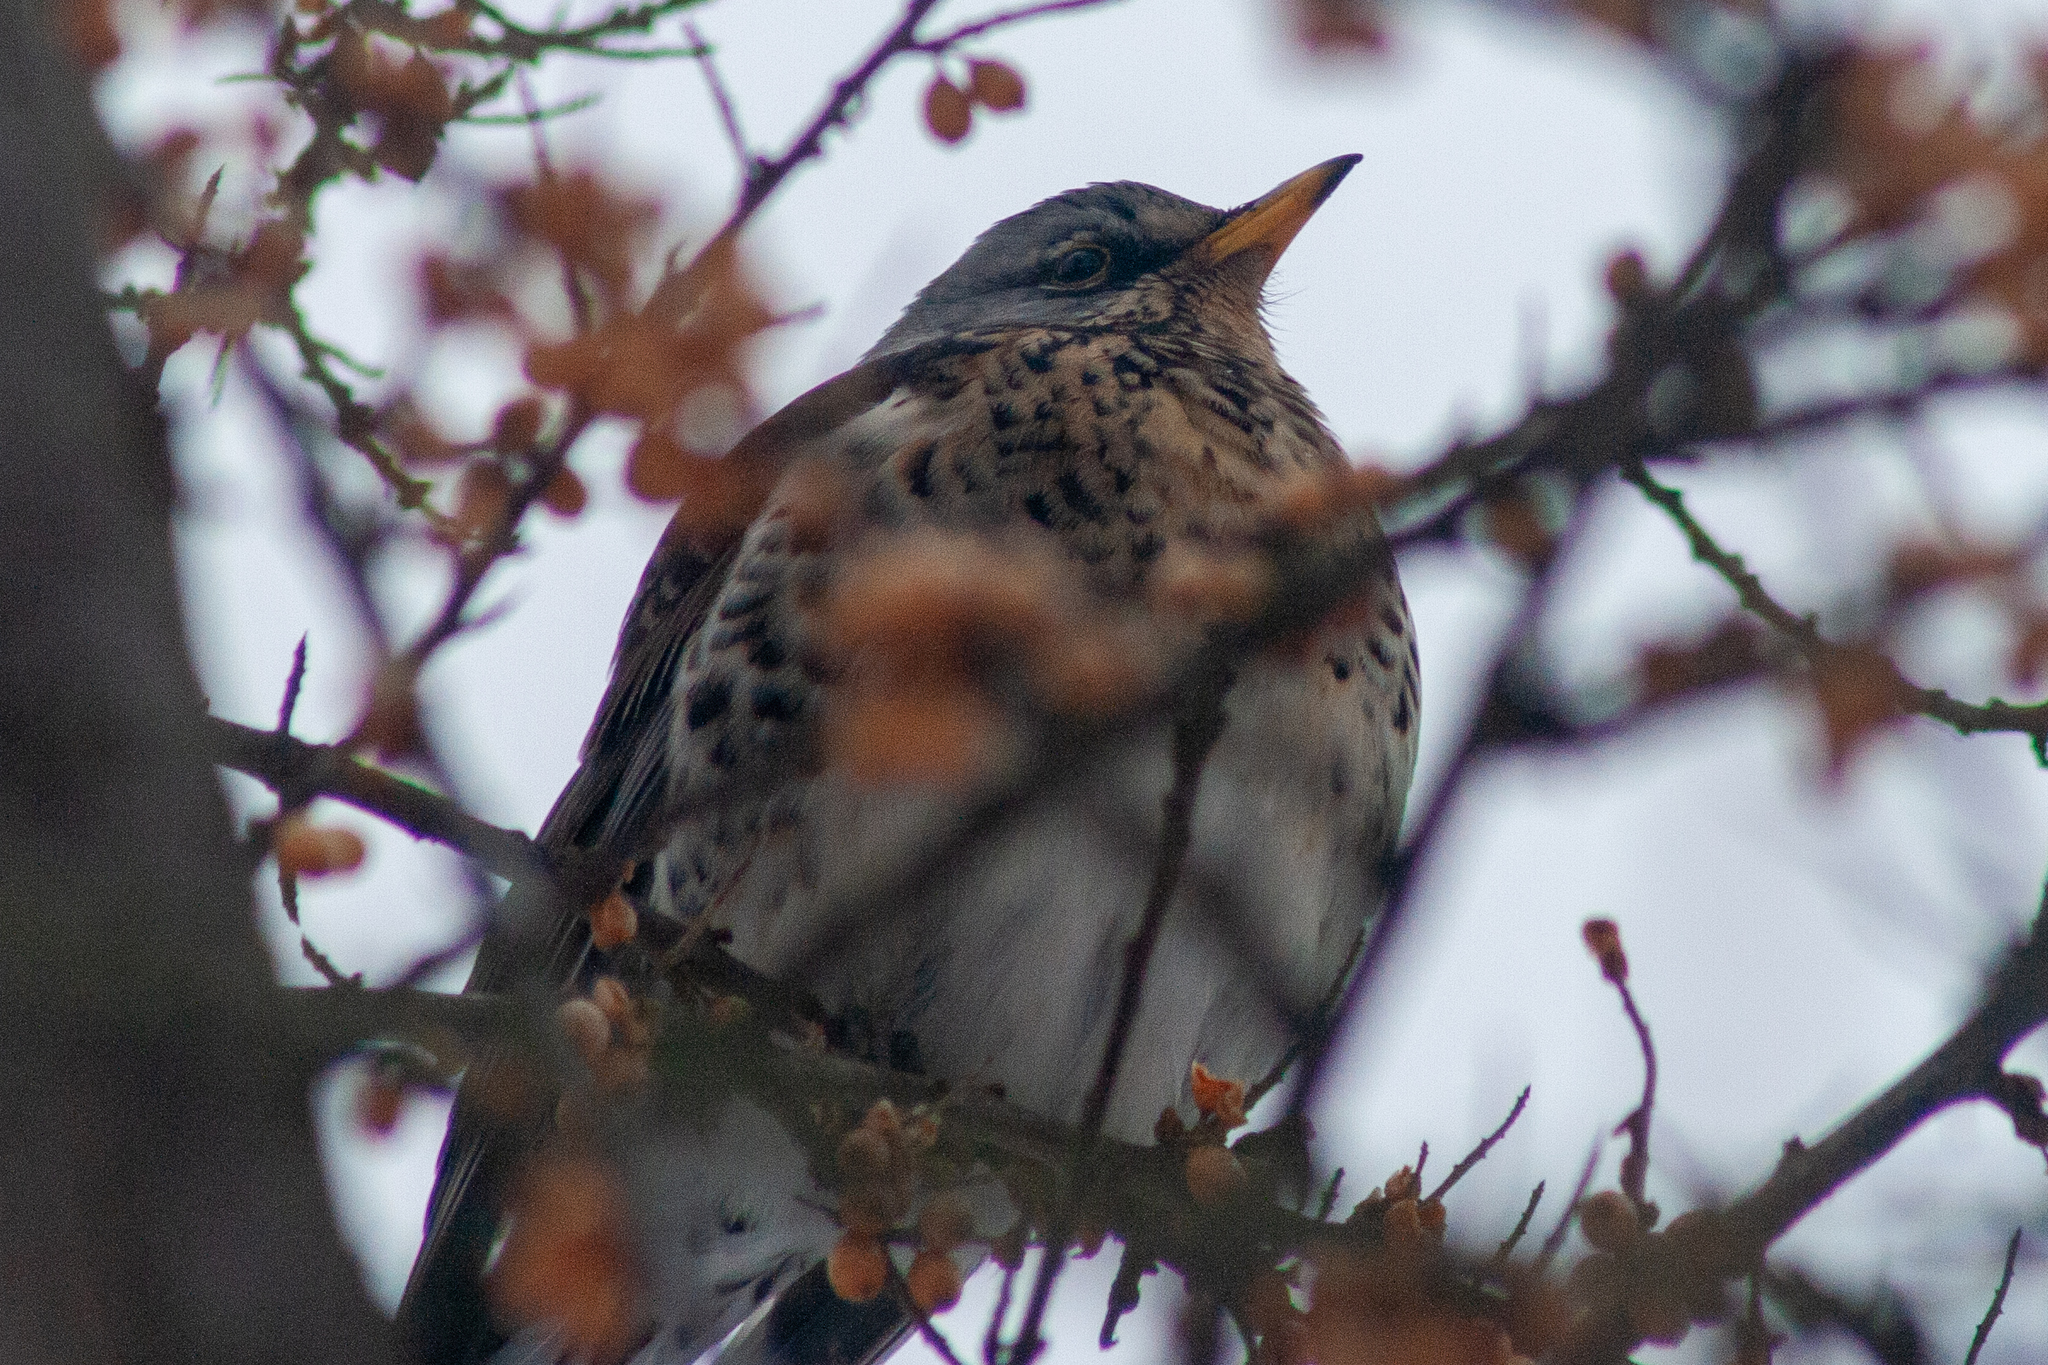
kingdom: Animalia
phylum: Chordata
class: Aves
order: Passeriformes
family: Turdidae
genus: Turdus
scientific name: Turdus pilaris
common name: Fieldfare
